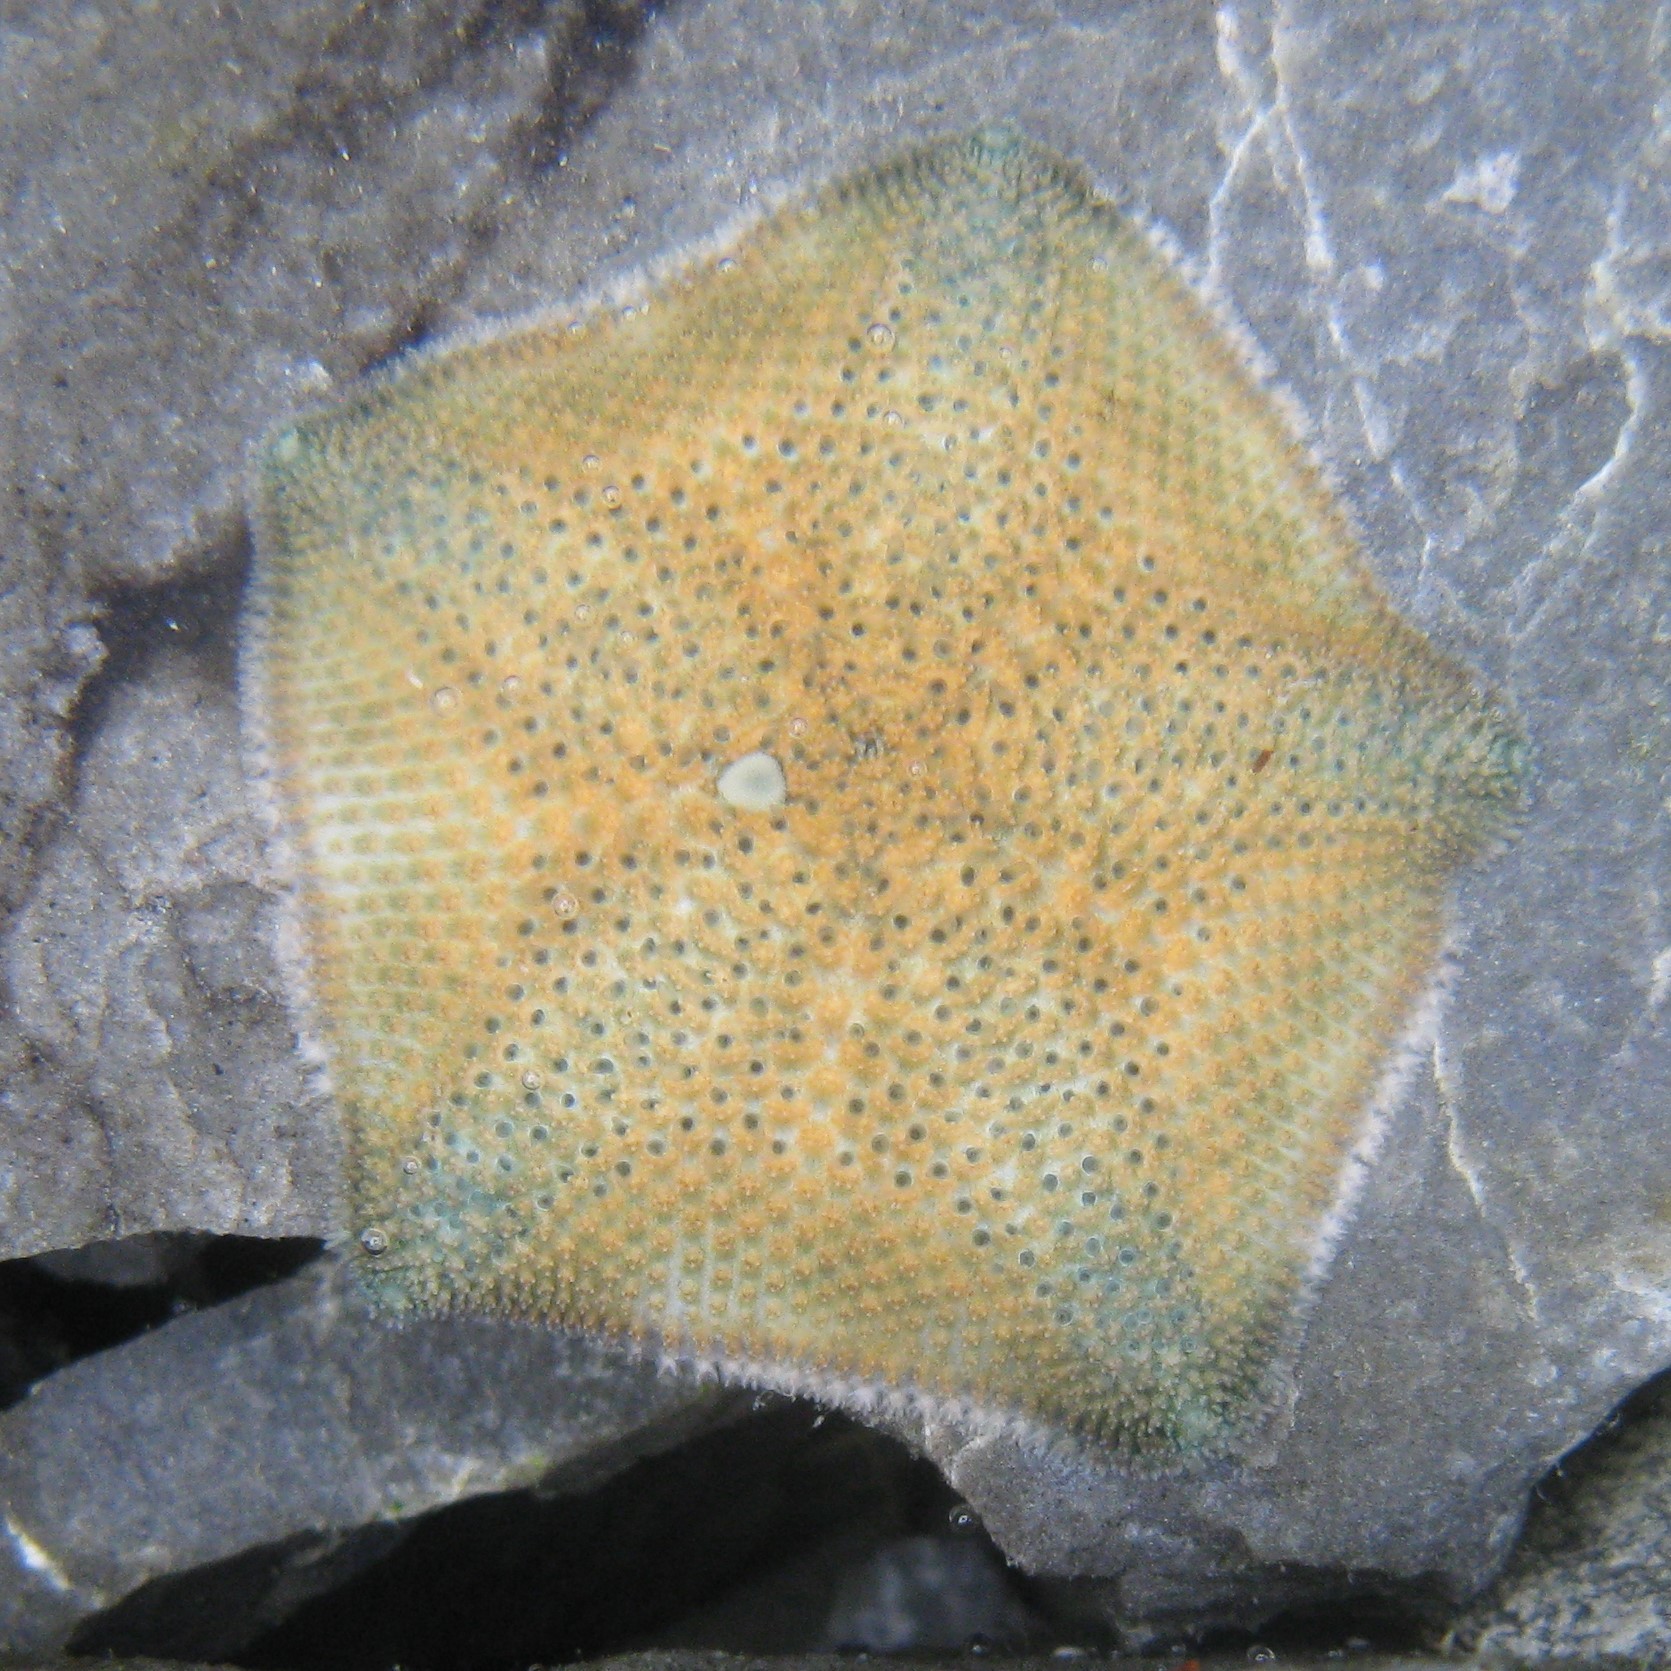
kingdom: Animalia
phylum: Echinodermata
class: Asteroidea
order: Valvatida
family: Asterinidae
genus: Meridiastra
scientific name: Meridiastra mortenseni
